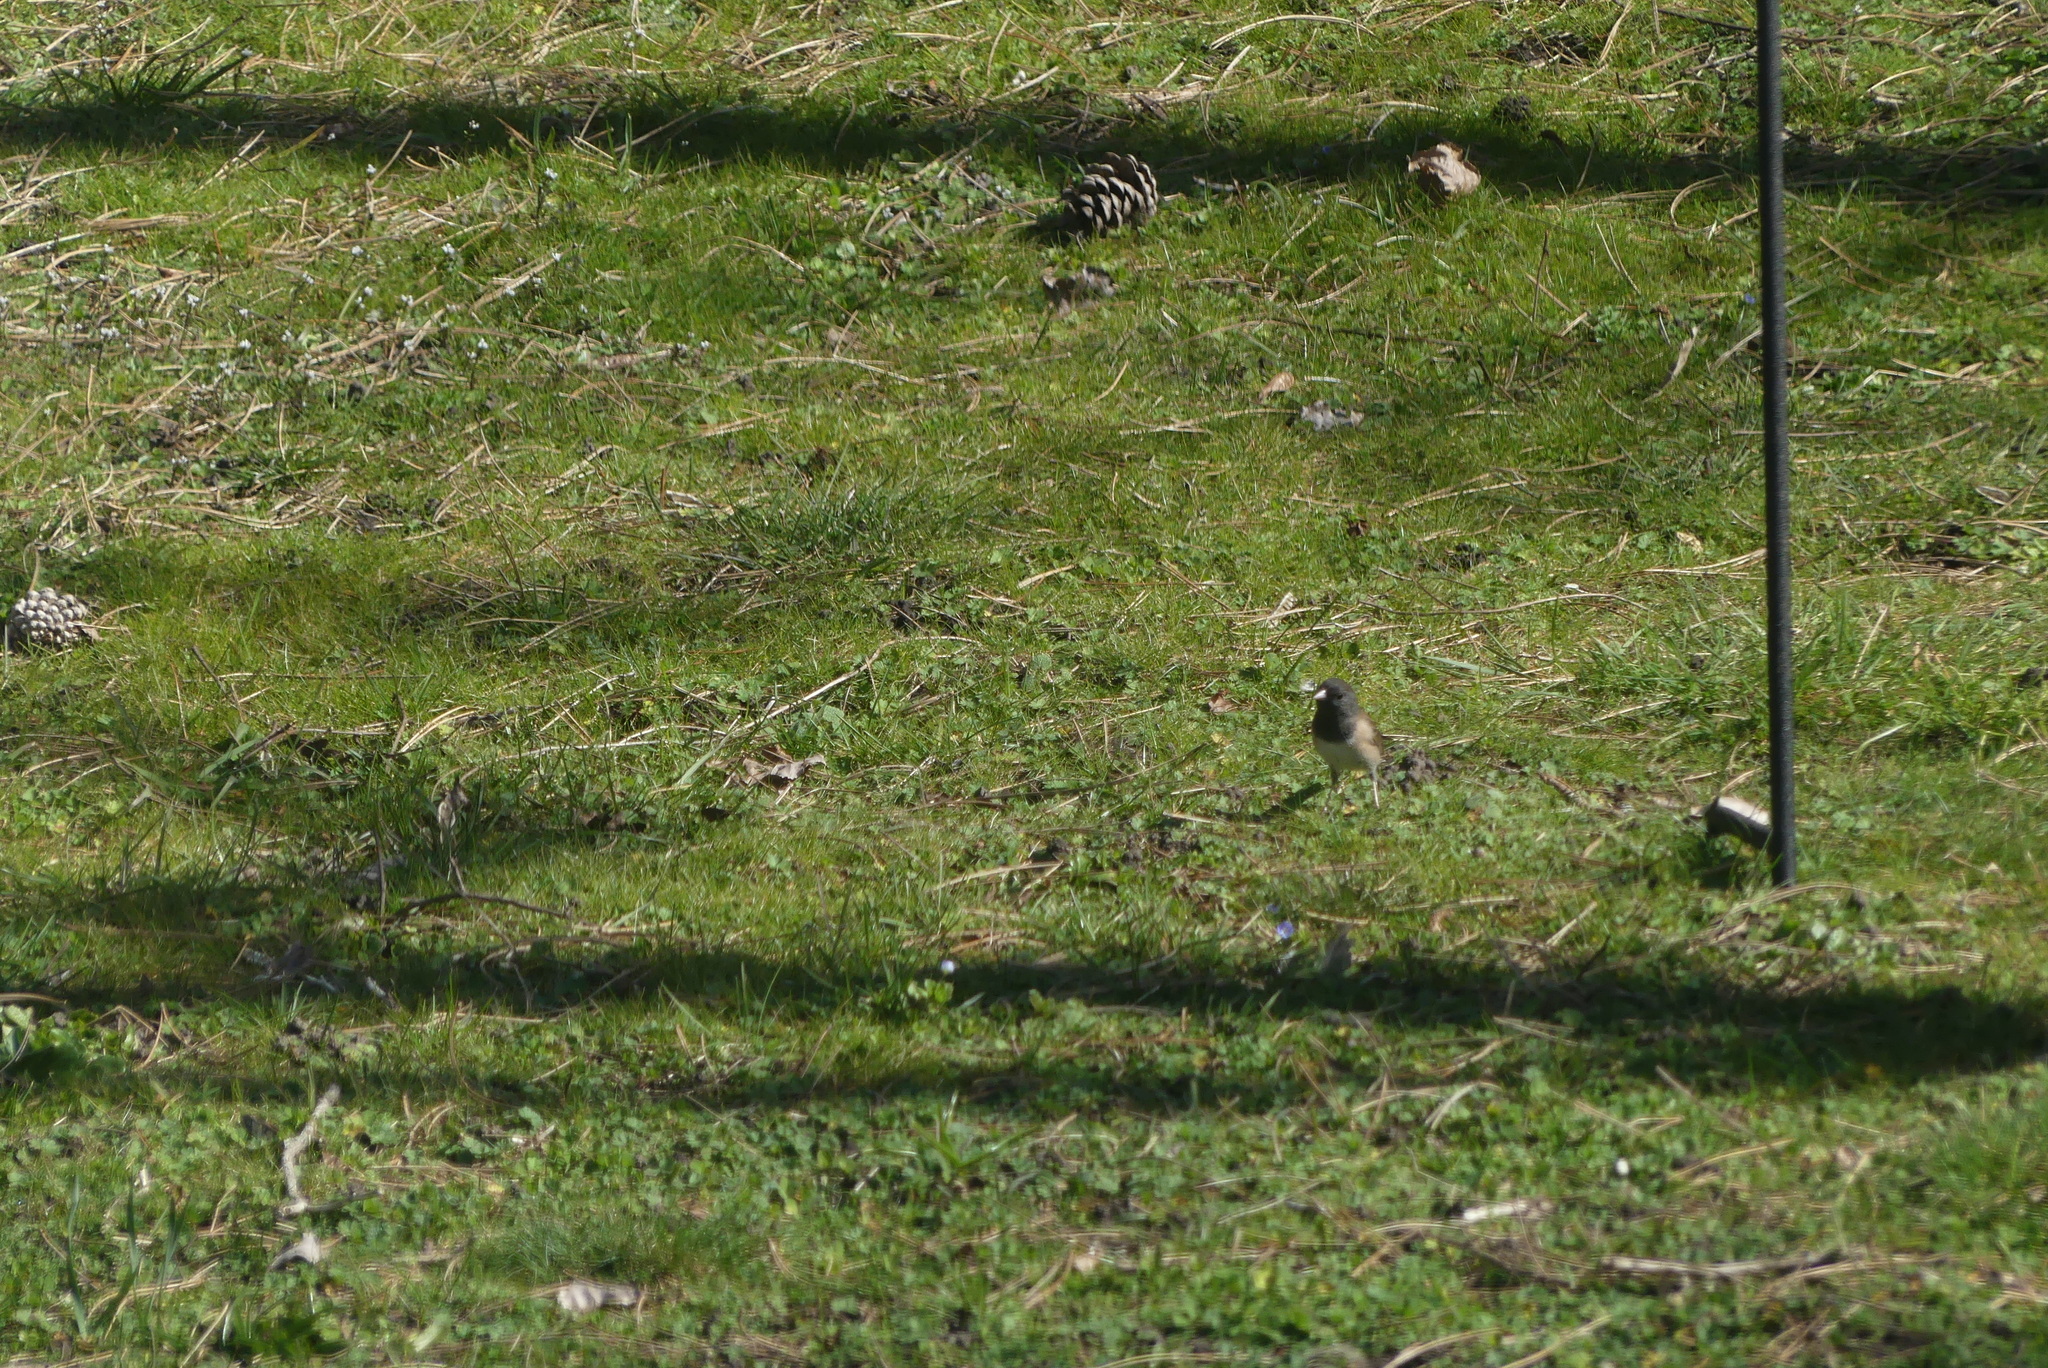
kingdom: Animalia
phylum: Chordata
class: Aves
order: Passeriformes
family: Passerellidae
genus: Junco
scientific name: Junco hyemalis
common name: Dark-eyed junco
